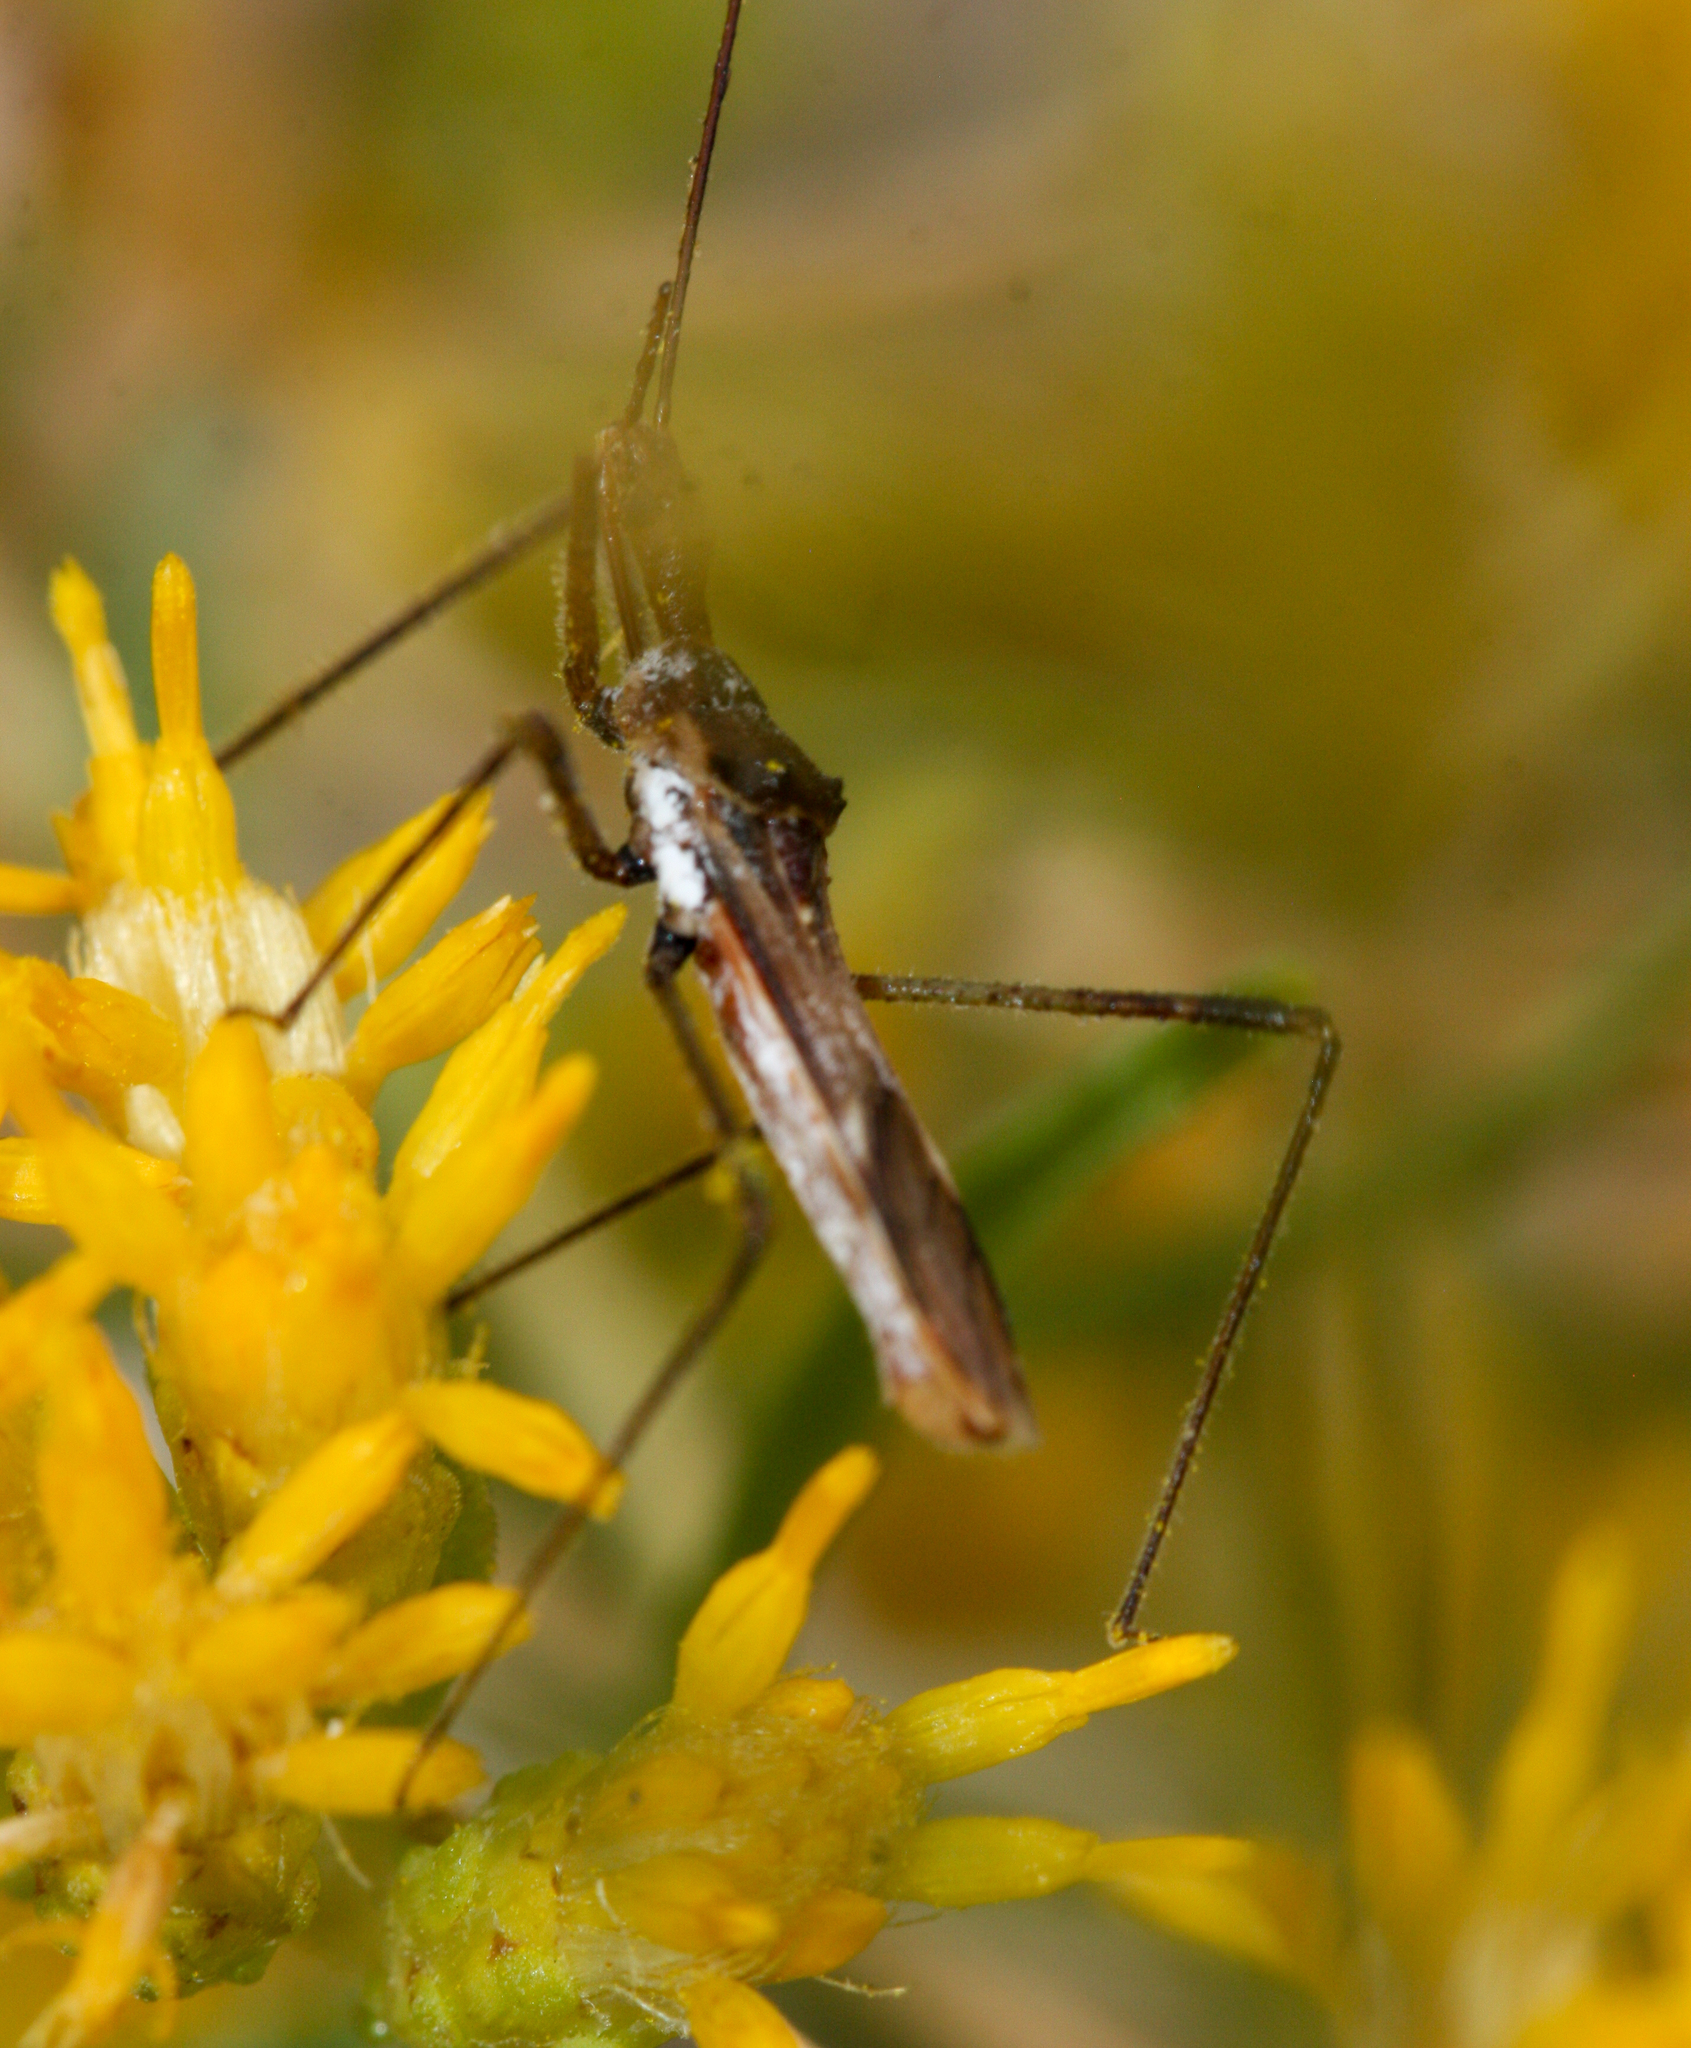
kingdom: Animalia
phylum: Arthropoda
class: Insecta
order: Hemiptera
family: Reduviidae
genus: Zelus
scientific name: Zelus tetracanthus
